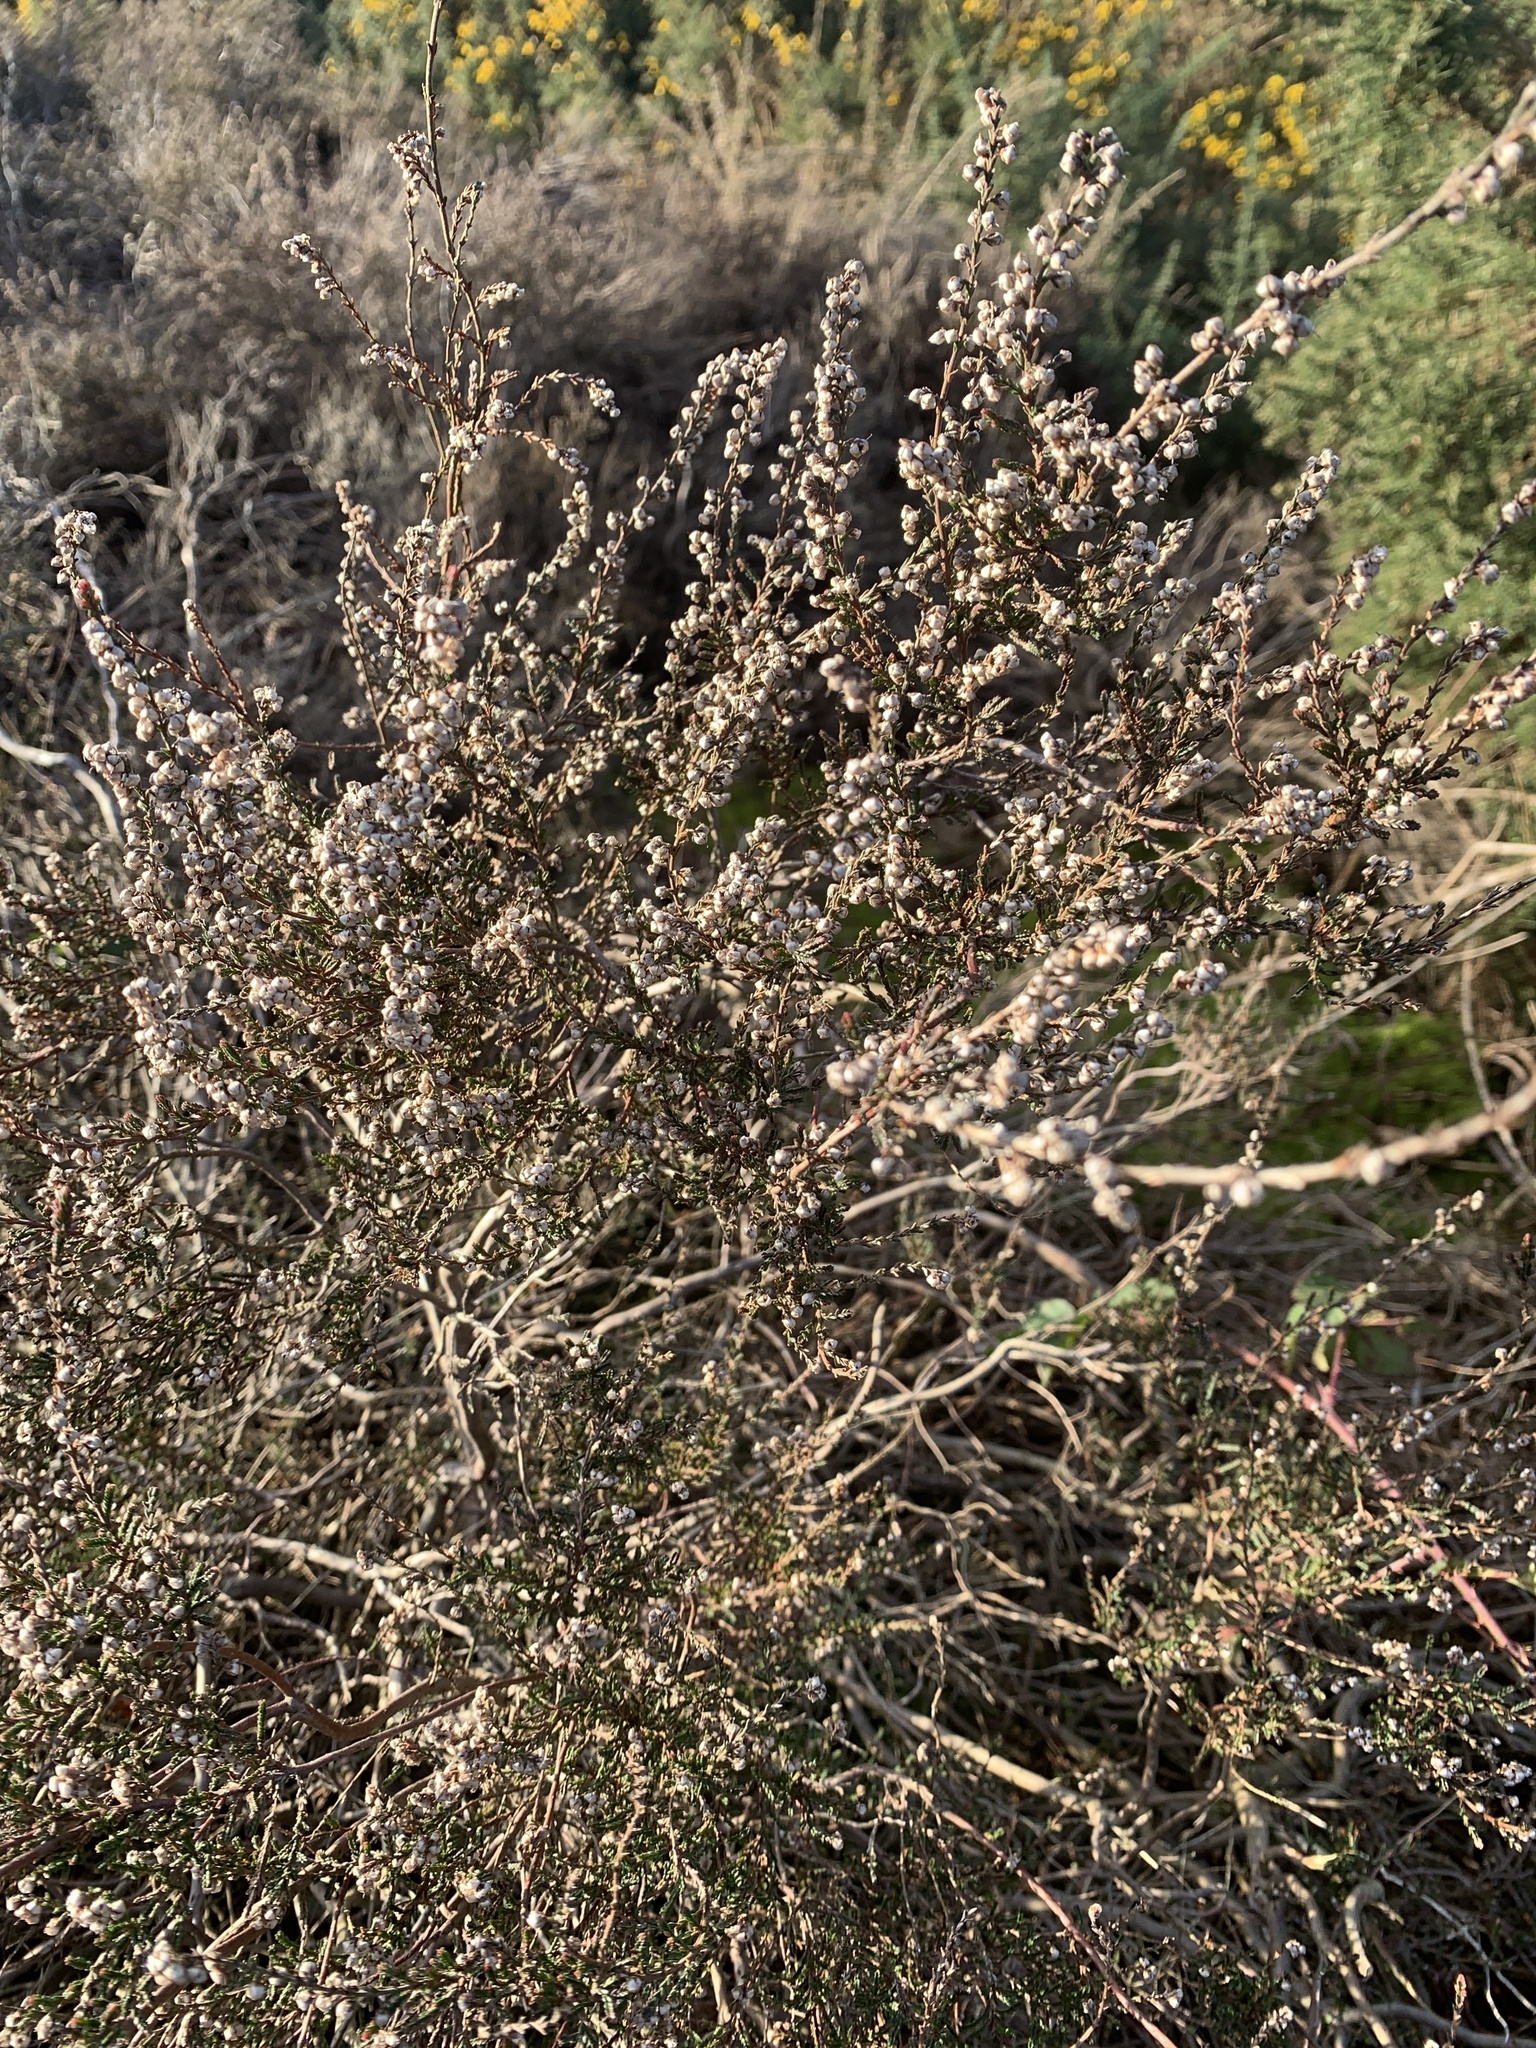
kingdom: Plantae
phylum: Tracheophyta
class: Magnoliopsida
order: Ericales
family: Ericaceae
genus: Calluna
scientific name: Calluna vulgaris
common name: Heather
